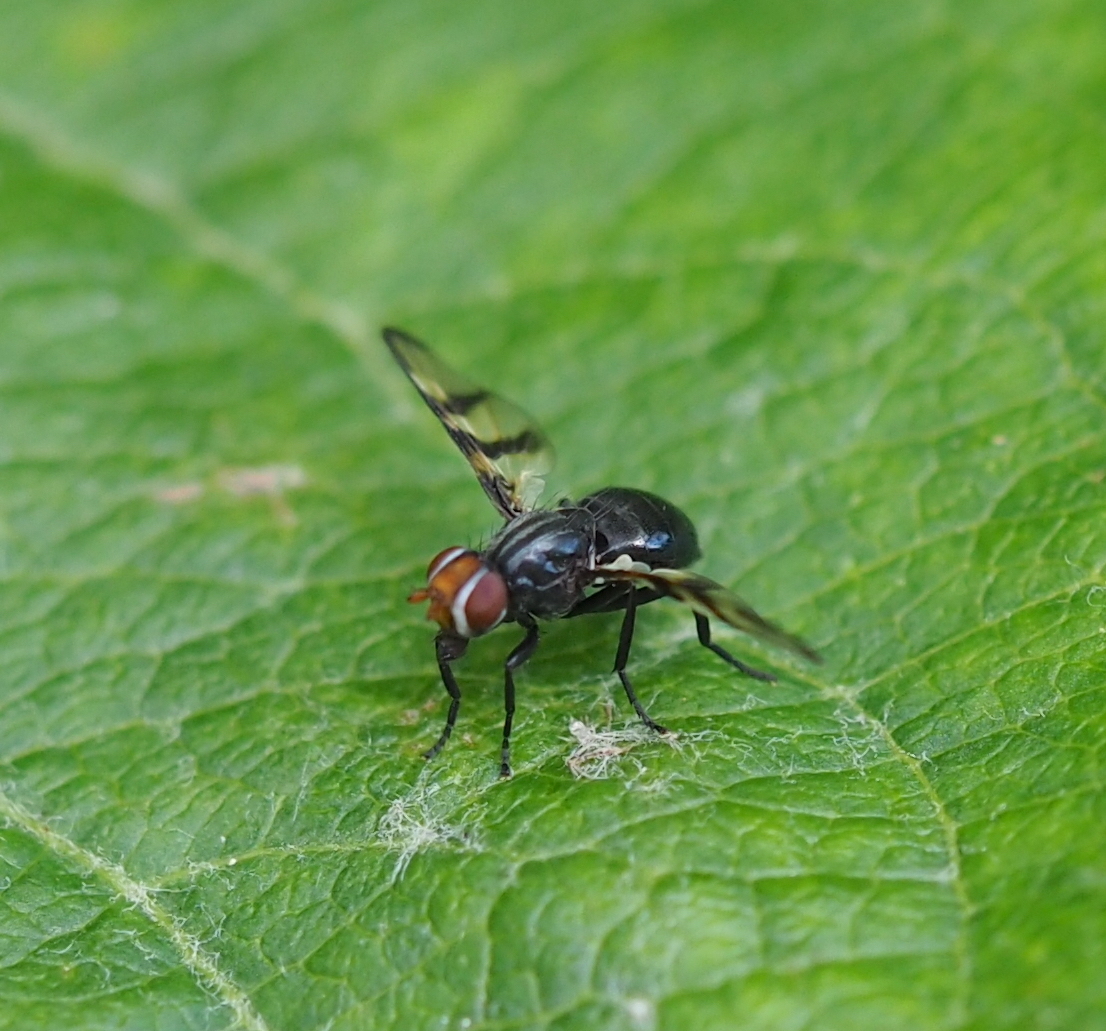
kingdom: Animalia
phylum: Arthropoda
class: Insecta
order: Diptera
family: Ulidiidae
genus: Systata
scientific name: Systata rivularis
